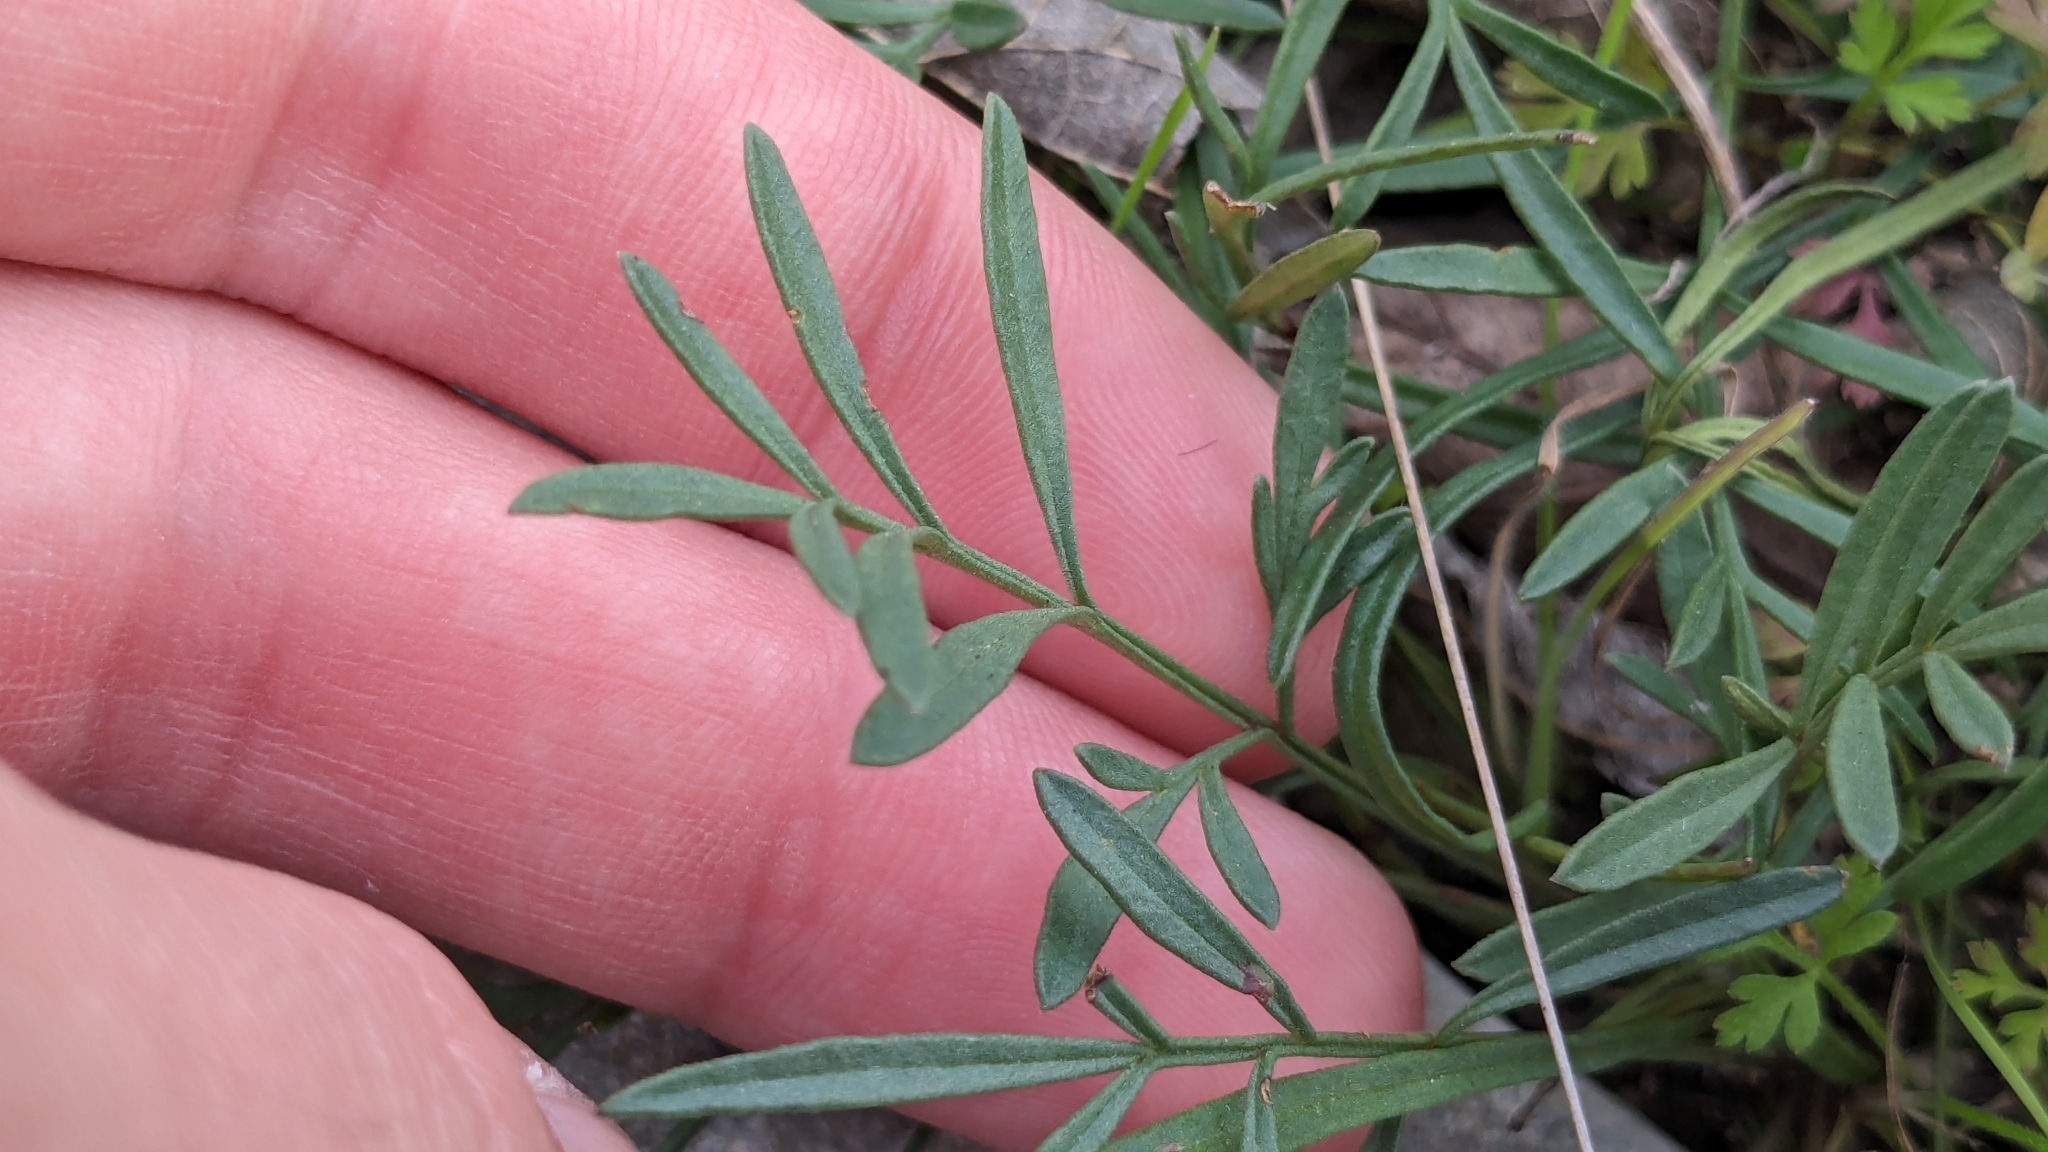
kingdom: Plantae
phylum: Tracheophyta
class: Magnoliopsida
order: Asterales
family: Asteraceae
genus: Ratibida
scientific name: Ratibida columnifera
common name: Prairie coneflower
